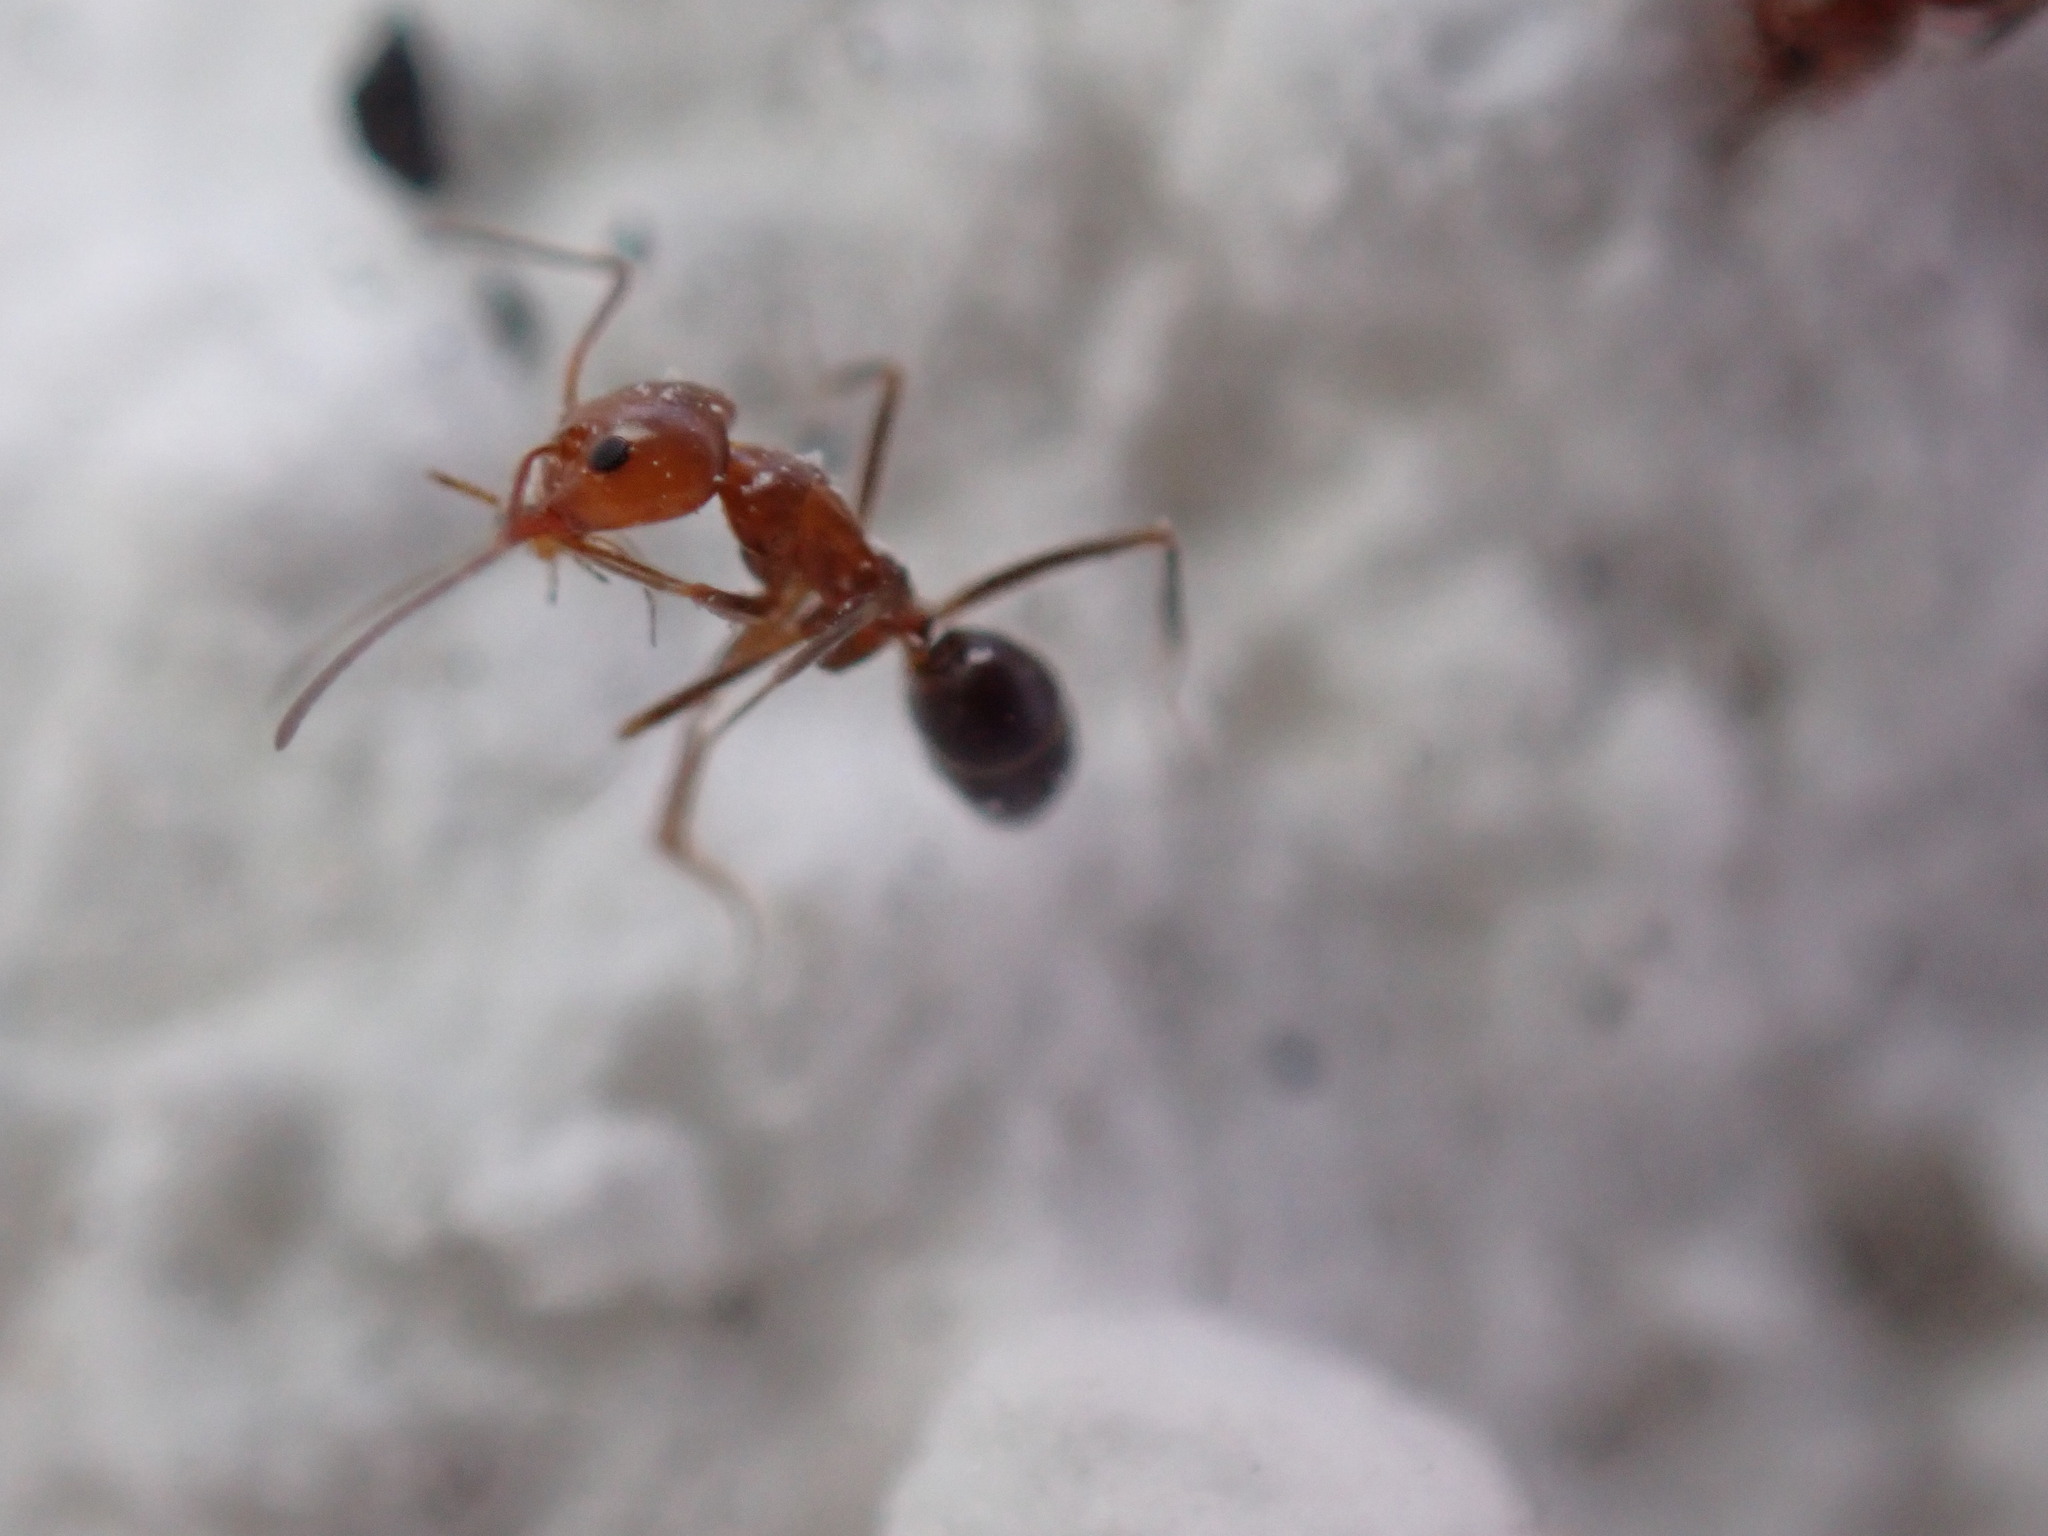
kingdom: Animalia
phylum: Arthropoda
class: Insecta
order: Hymenoptera
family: Formicidae
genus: Dorymyrmex
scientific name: Dorymyrmex bicolor
